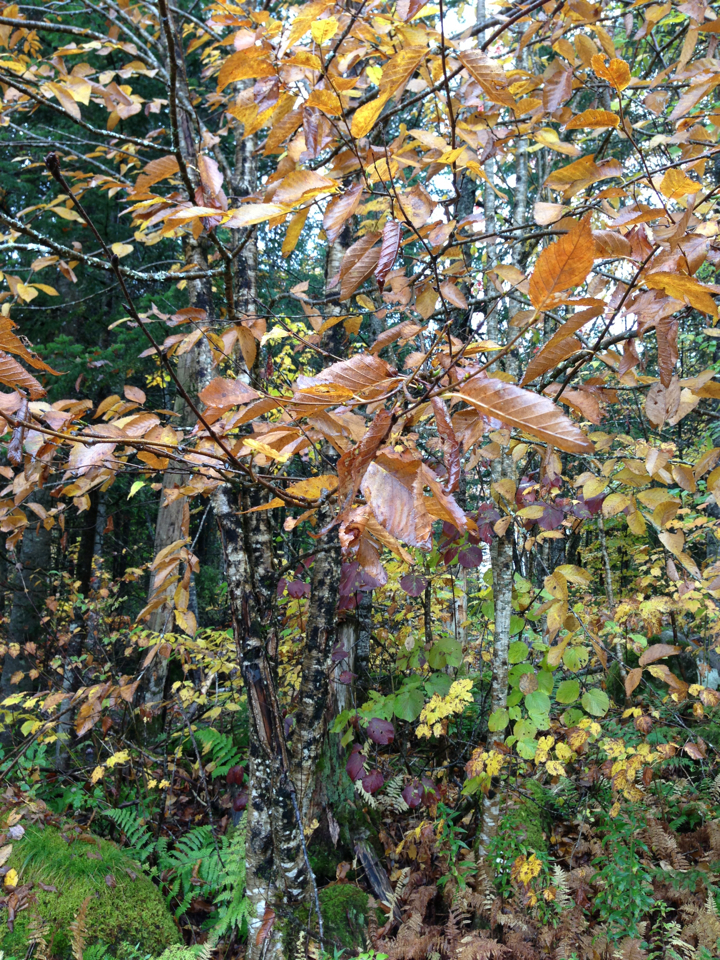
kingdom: Plantae
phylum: Tracheophyta
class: Magnoliopsida
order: Fagales
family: Betulaceae
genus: Betula
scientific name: Betula alleghaniensis
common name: Yellow birch
